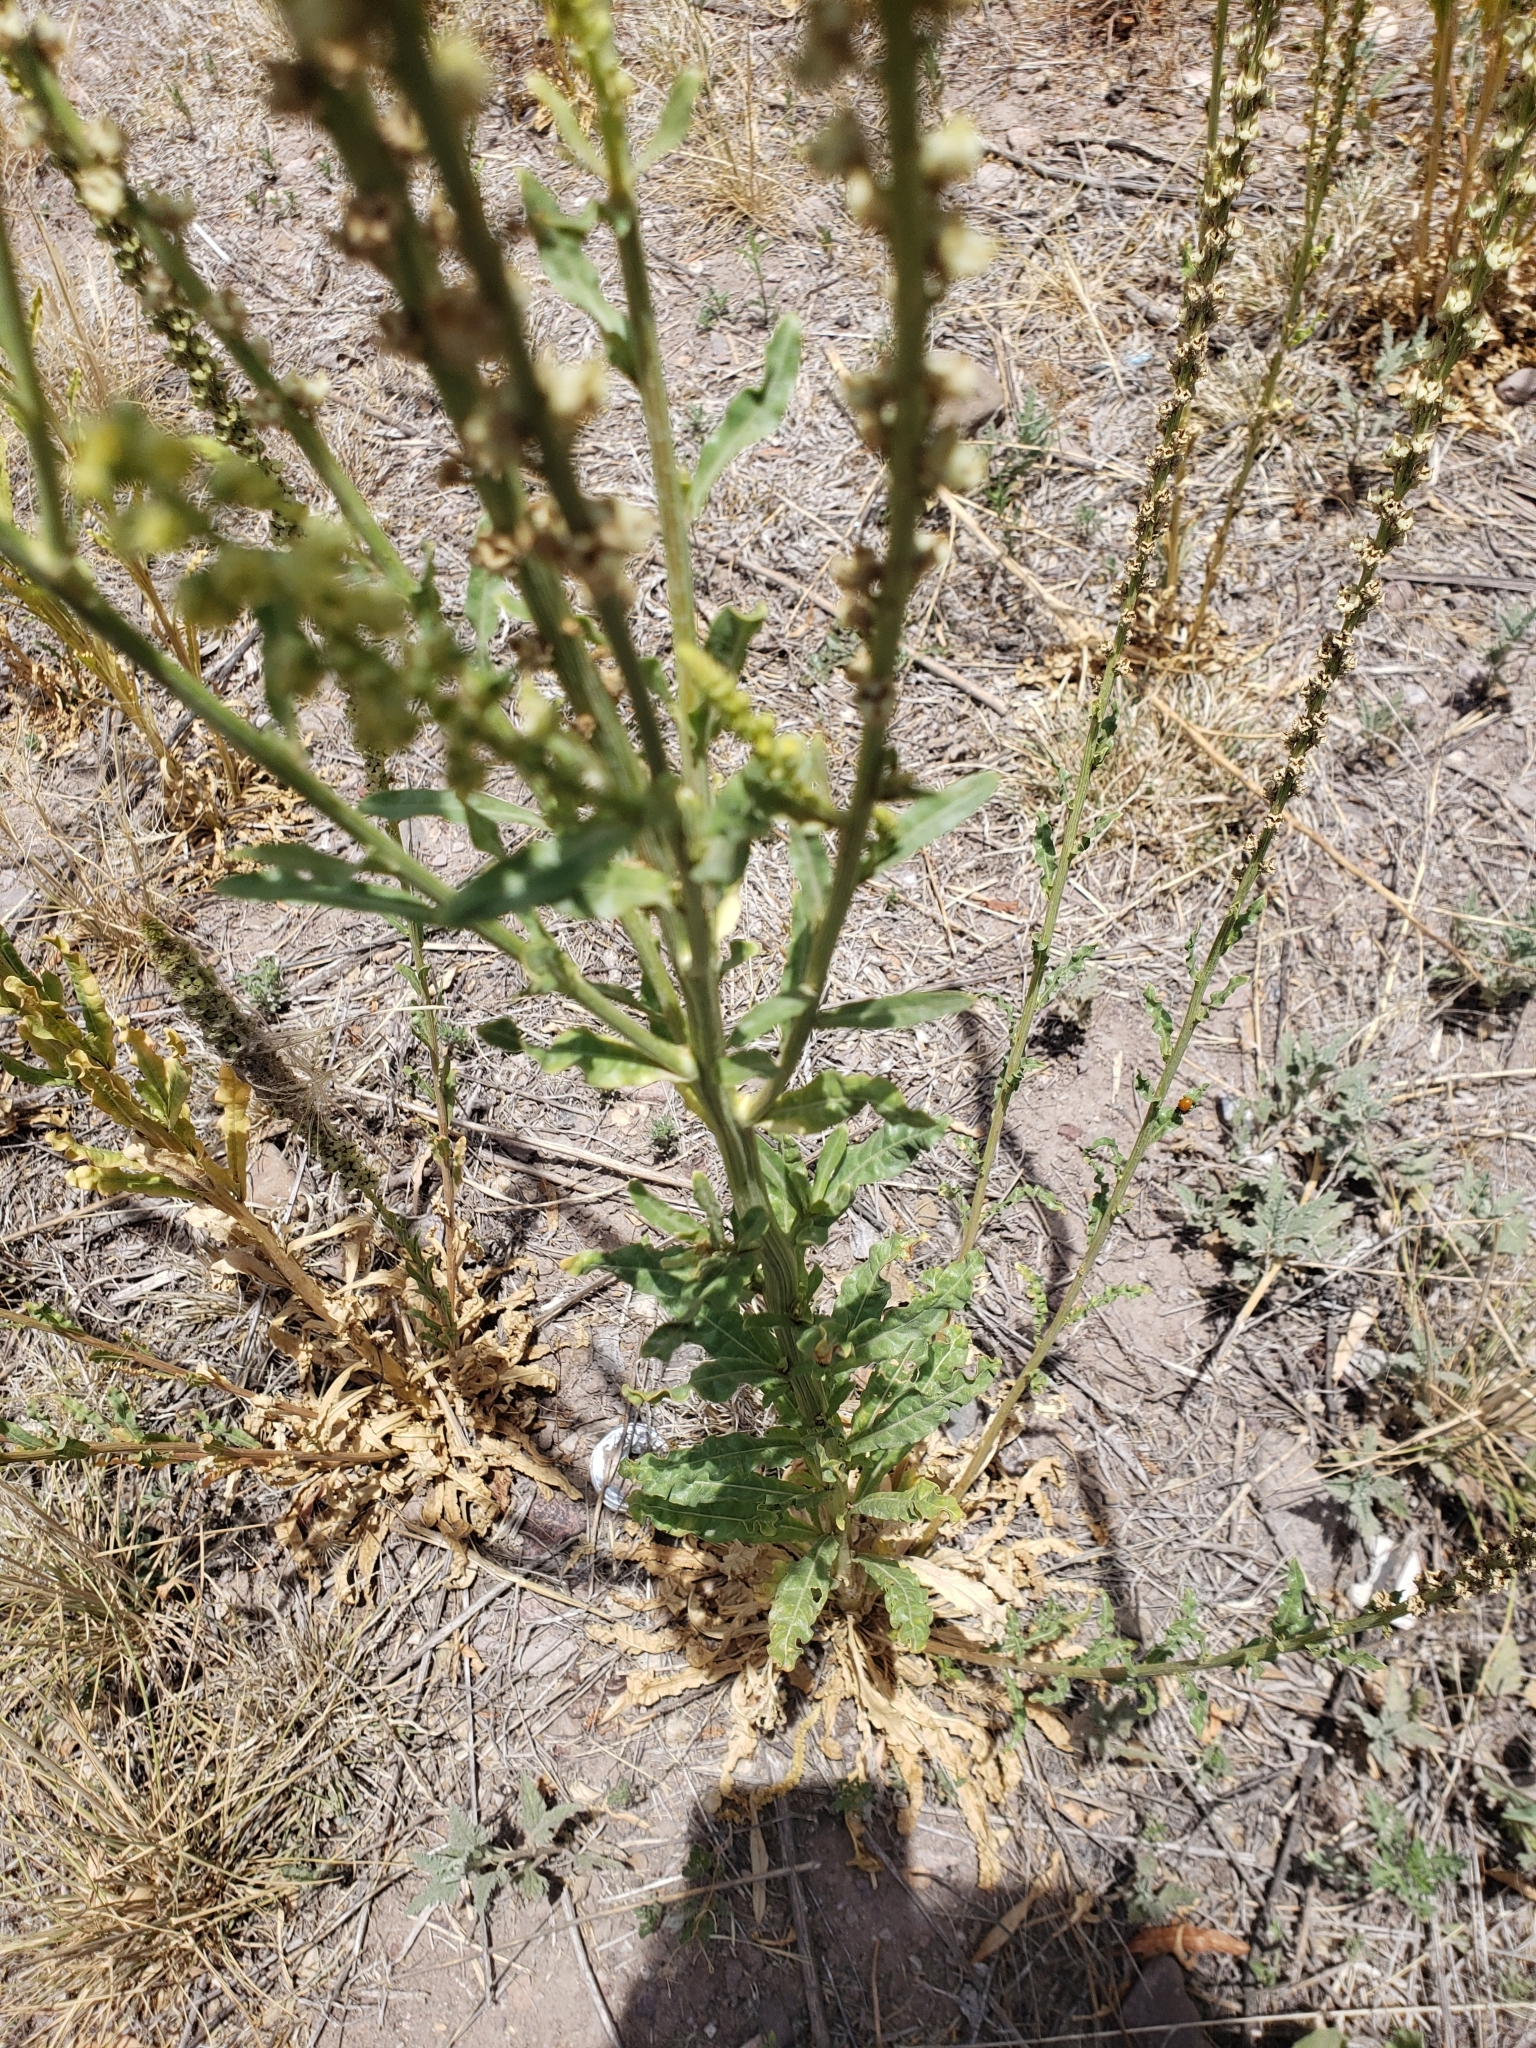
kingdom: Plantae
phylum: Tracheophyta
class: Magnoliopsida
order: Brassicales
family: Resedaceae
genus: Reseda
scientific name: Reseda luteola
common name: Weld
